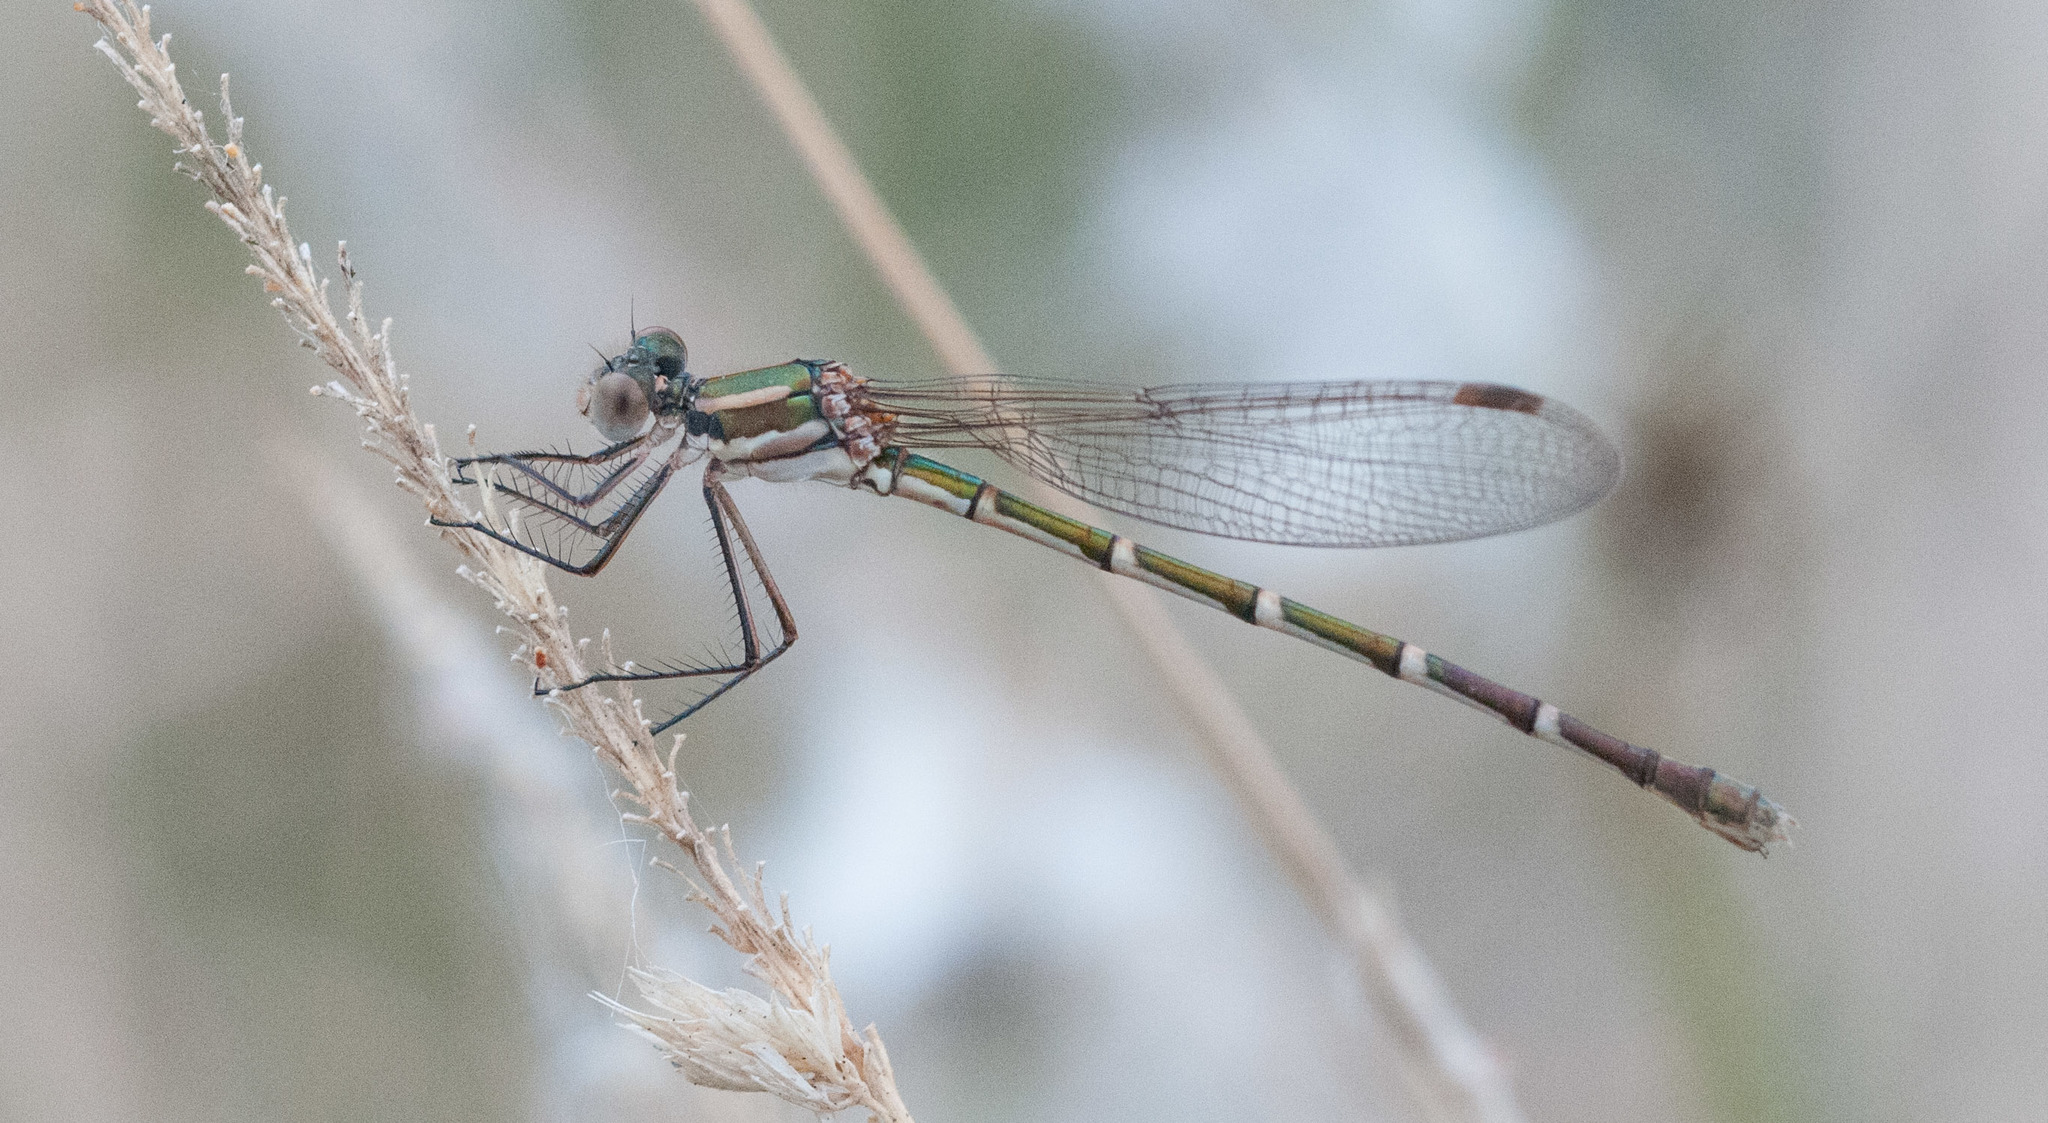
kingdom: Animalia
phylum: Arthropoda
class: Insecta
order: Odonata
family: Lestidae
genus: Austrolestes
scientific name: Austrolestes annulosus
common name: Blue ringtail
